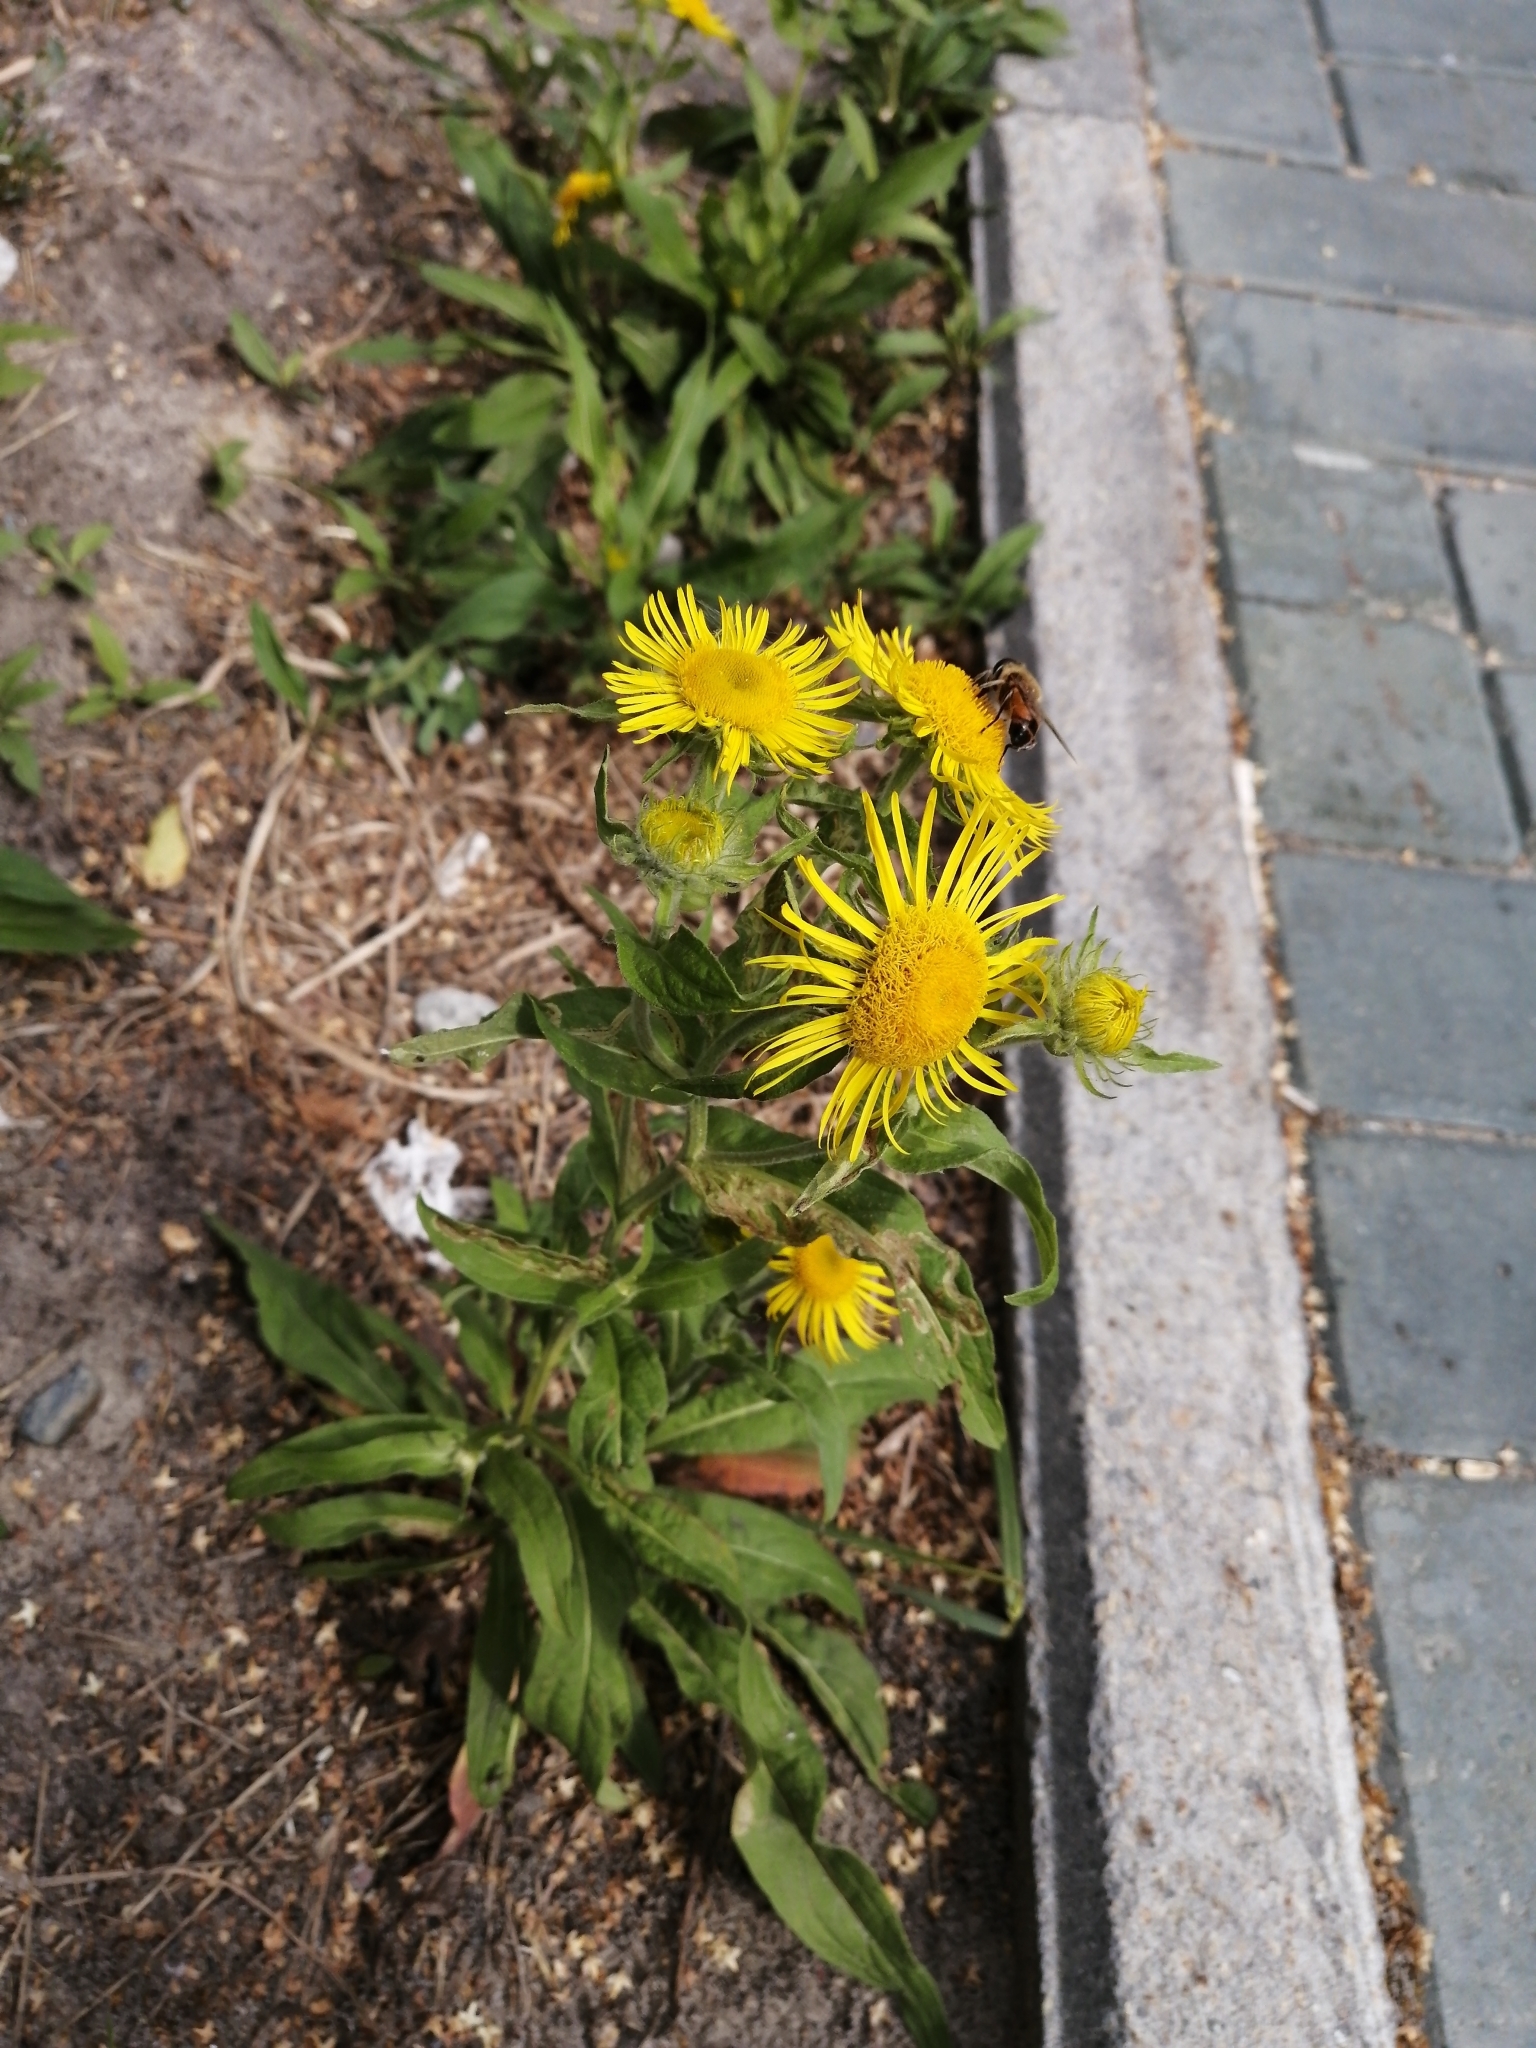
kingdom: Plantae
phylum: Tracheophyta
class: Magnoliopsida
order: Asterales
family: Asteraceae
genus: Pentanema
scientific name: Pentanema britannicum
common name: British elecampane
